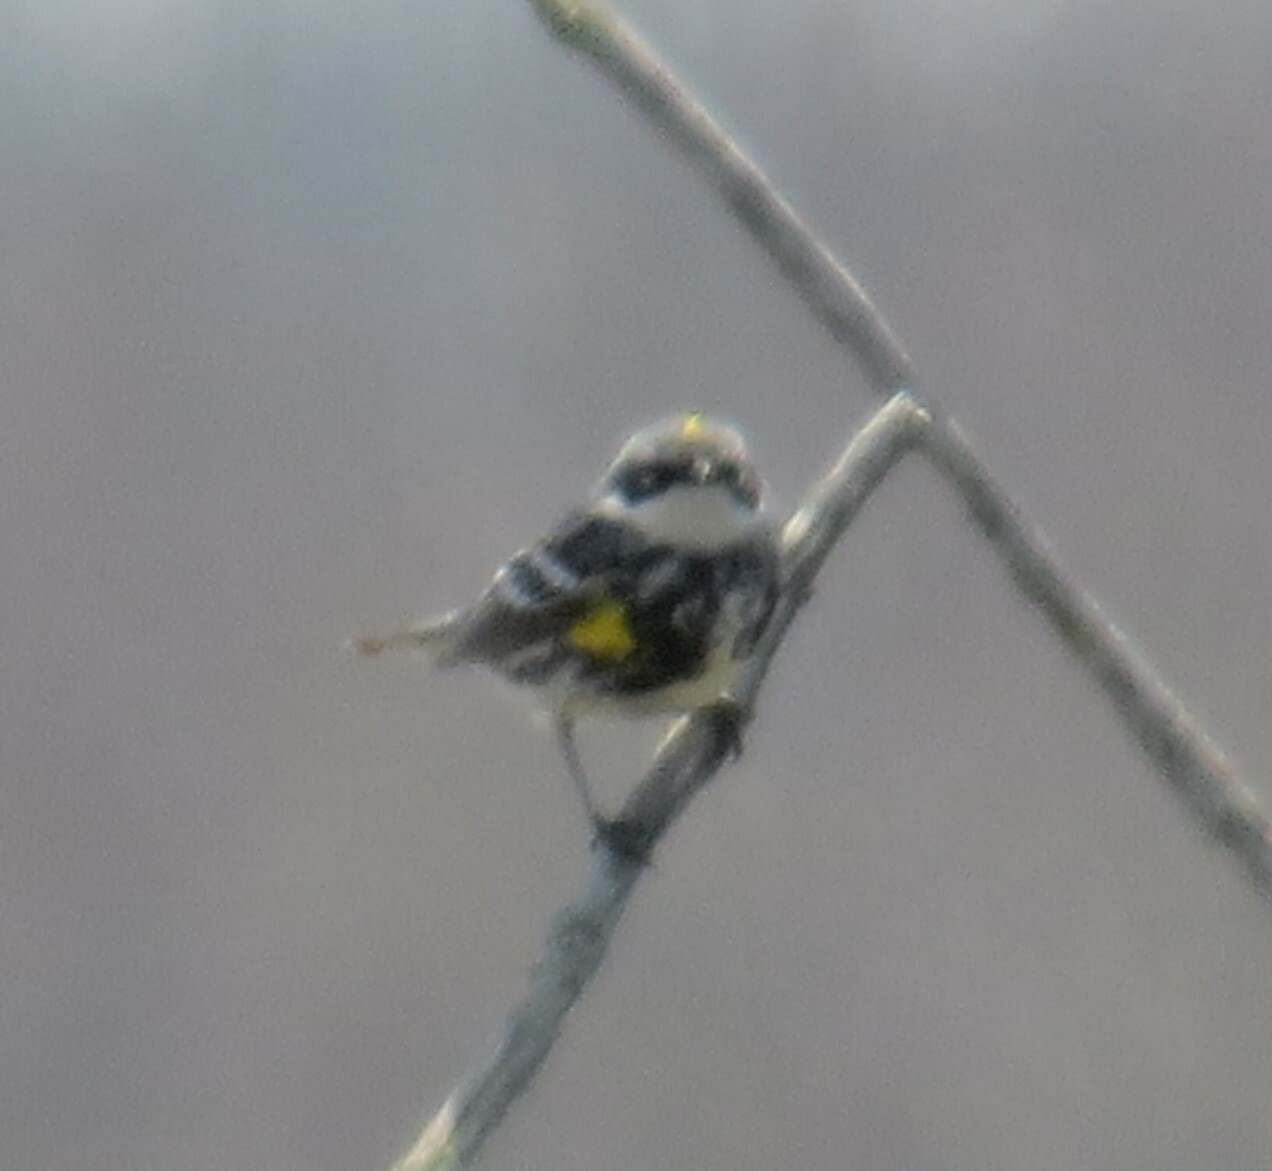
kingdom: Animalia
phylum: Chordata
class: Aves
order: Passeriformes
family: Parulidae
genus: Setophaga
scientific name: Setophaga coronata
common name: Myrtle warbler
